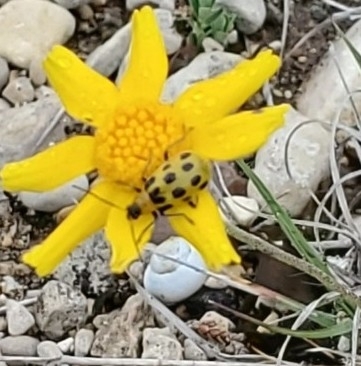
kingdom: Animalia
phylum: Arthropoda
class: Insecta
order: Coleoptera
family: Chrysomelidae
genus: Diabrotica
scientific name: Diabrotica undecimpunctata
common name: Spotted cucumber beetle
